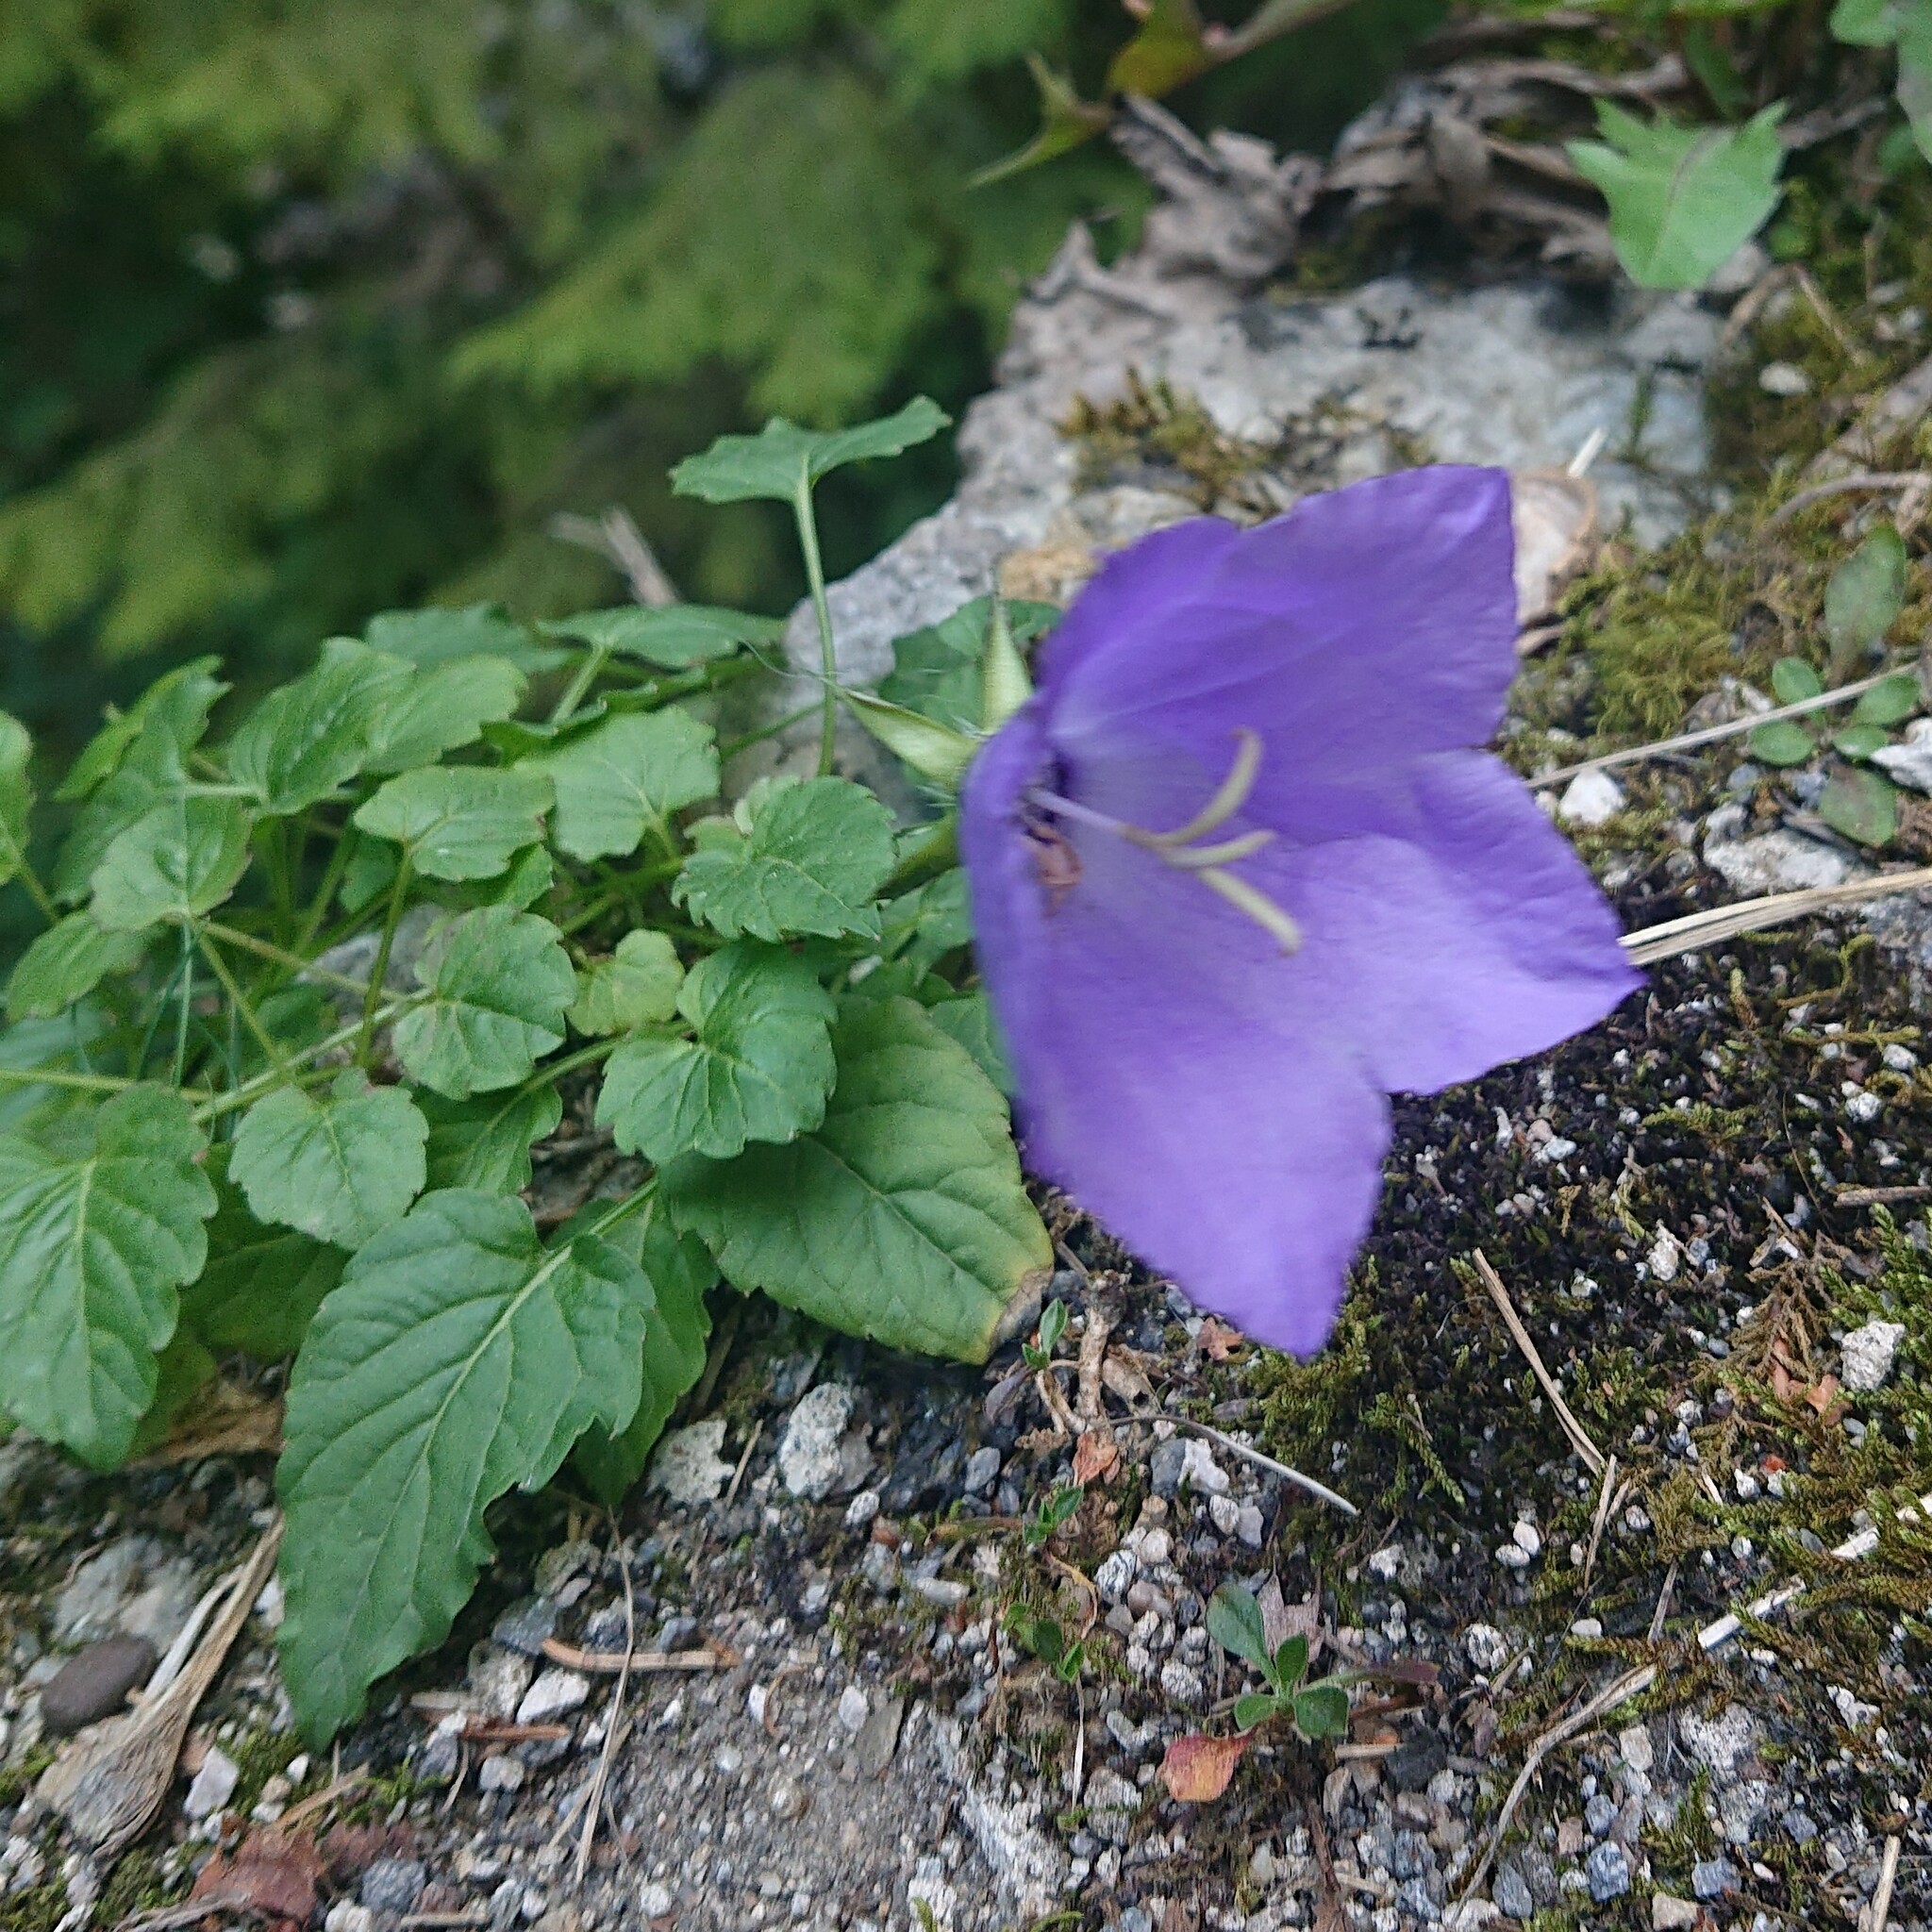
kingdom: Plantae
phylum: Tracheophyta
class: Magnoliopsida
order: Asterales
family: Campanulaceae
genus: Campanula
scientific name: Campanula carpatica
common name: Tussock bellflower
